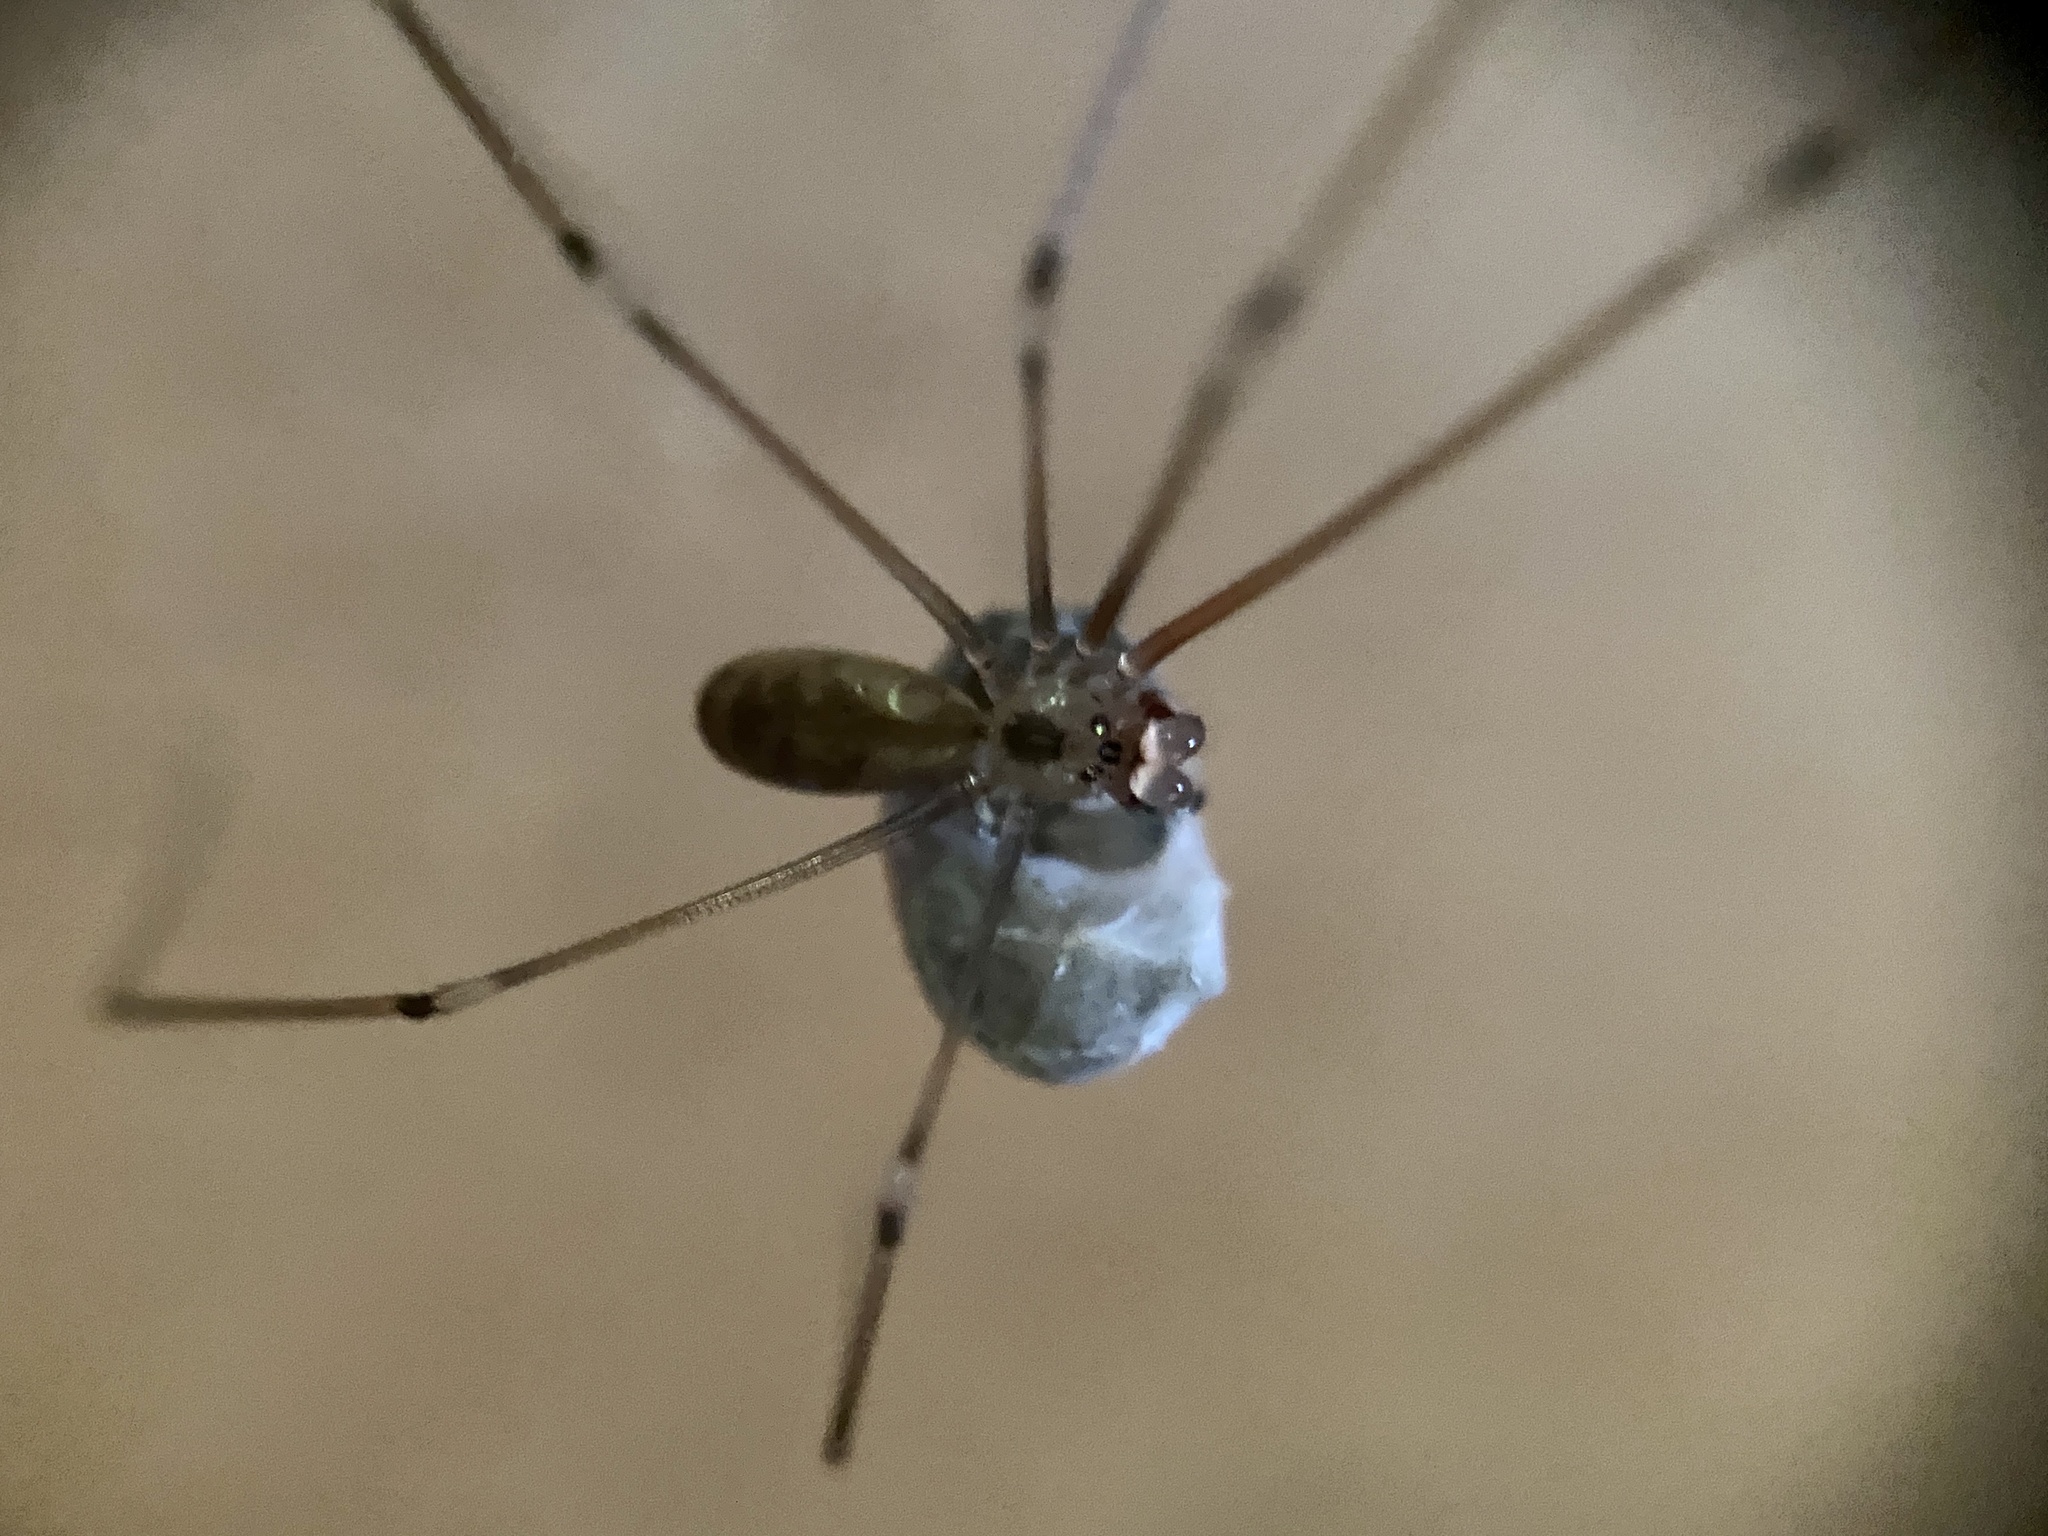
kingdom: Animalia
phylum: Arthropoda
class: Arachnida
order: Araneae
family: Pholcidae
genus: Pholcus
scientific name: Pholcus phalangioides
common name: Longbodied cellar spider
